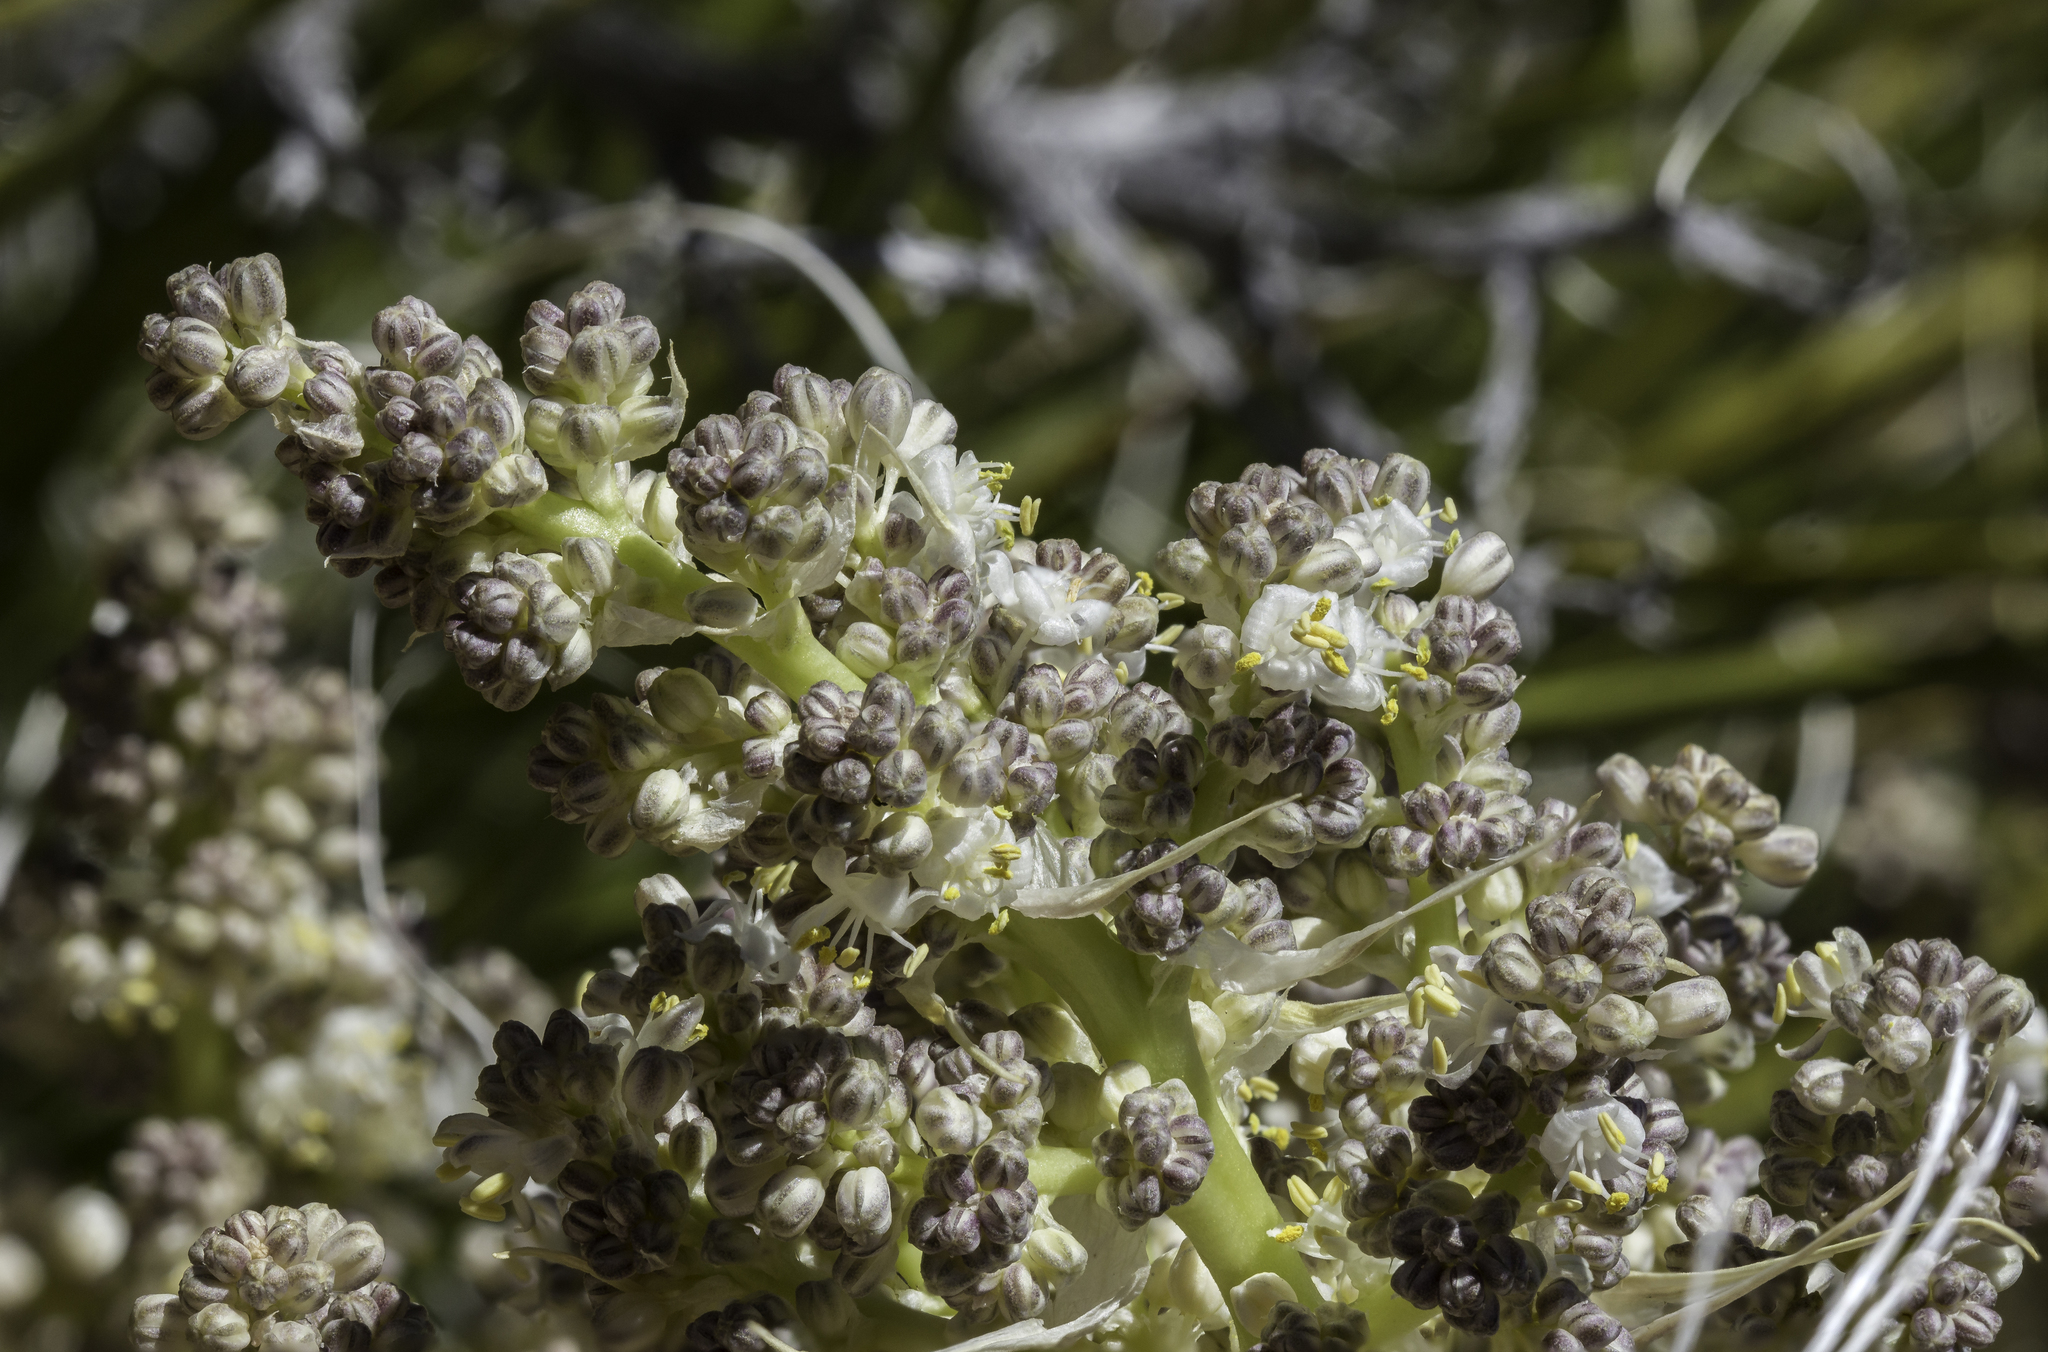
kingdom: Plantae
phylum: Tracheophyta
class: Liliopsida
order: Asparagales
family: Asparagaceae
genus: Nolina
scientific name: Nolina texana
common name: Texas sacahuiste
